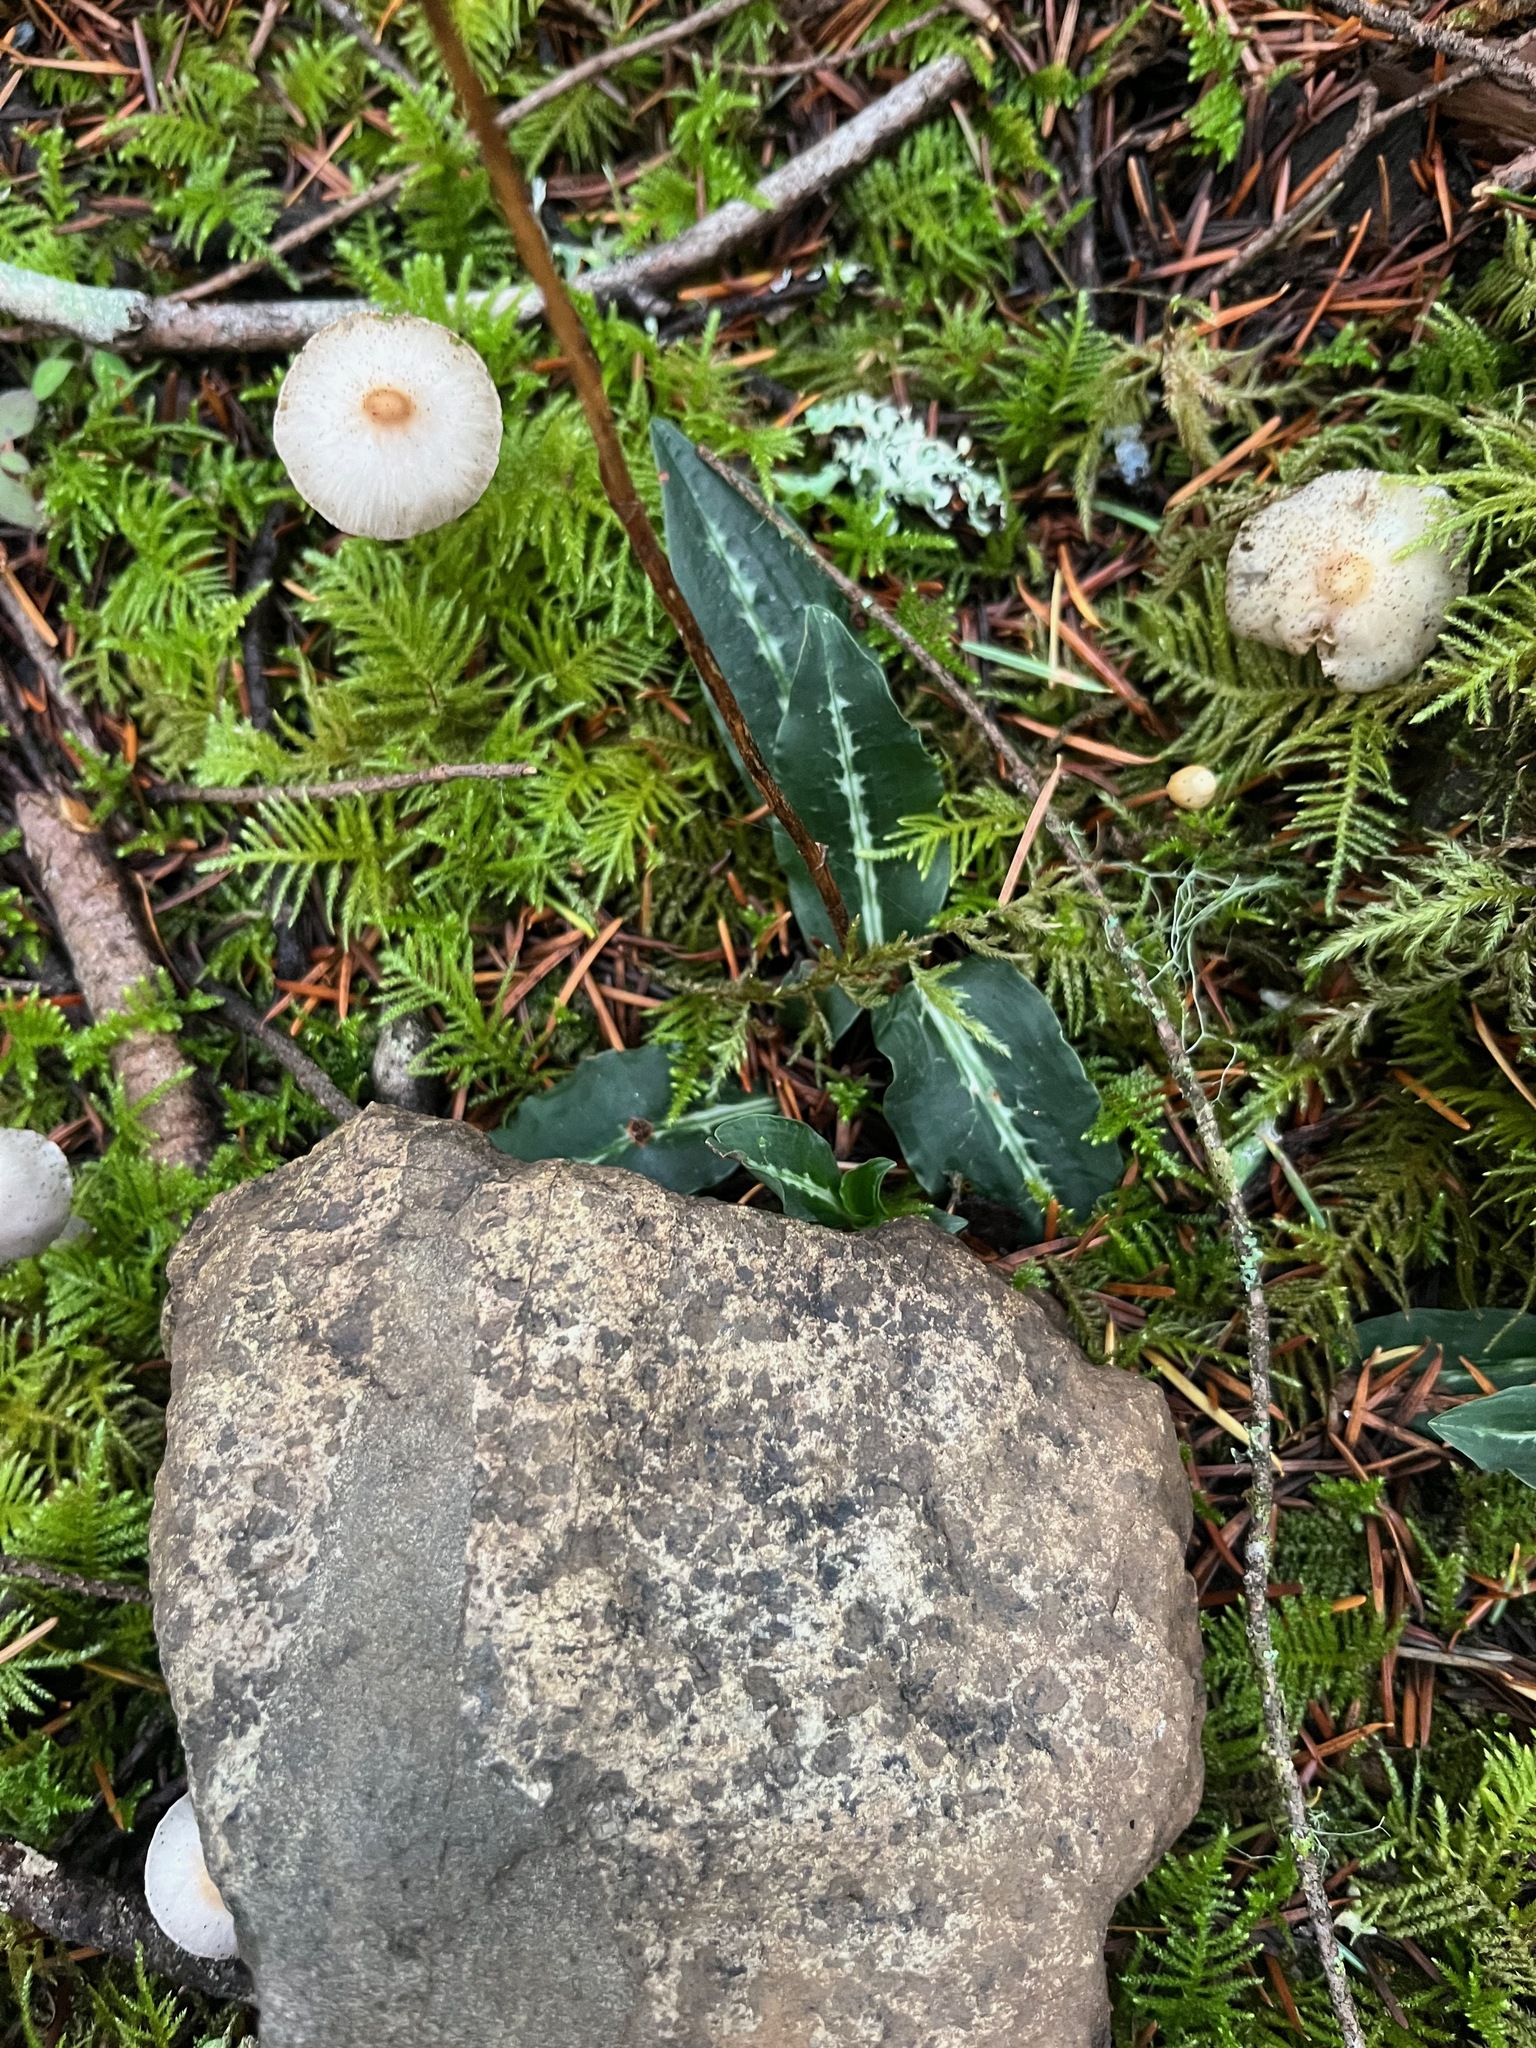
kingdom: Plantae
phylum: Tracheophyta
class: Liliopsida
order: Asparagales
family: Orchidaceae
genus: Goodyera
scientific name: Goodyera oblongifolia
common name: Giant rattlesnake-plantain
